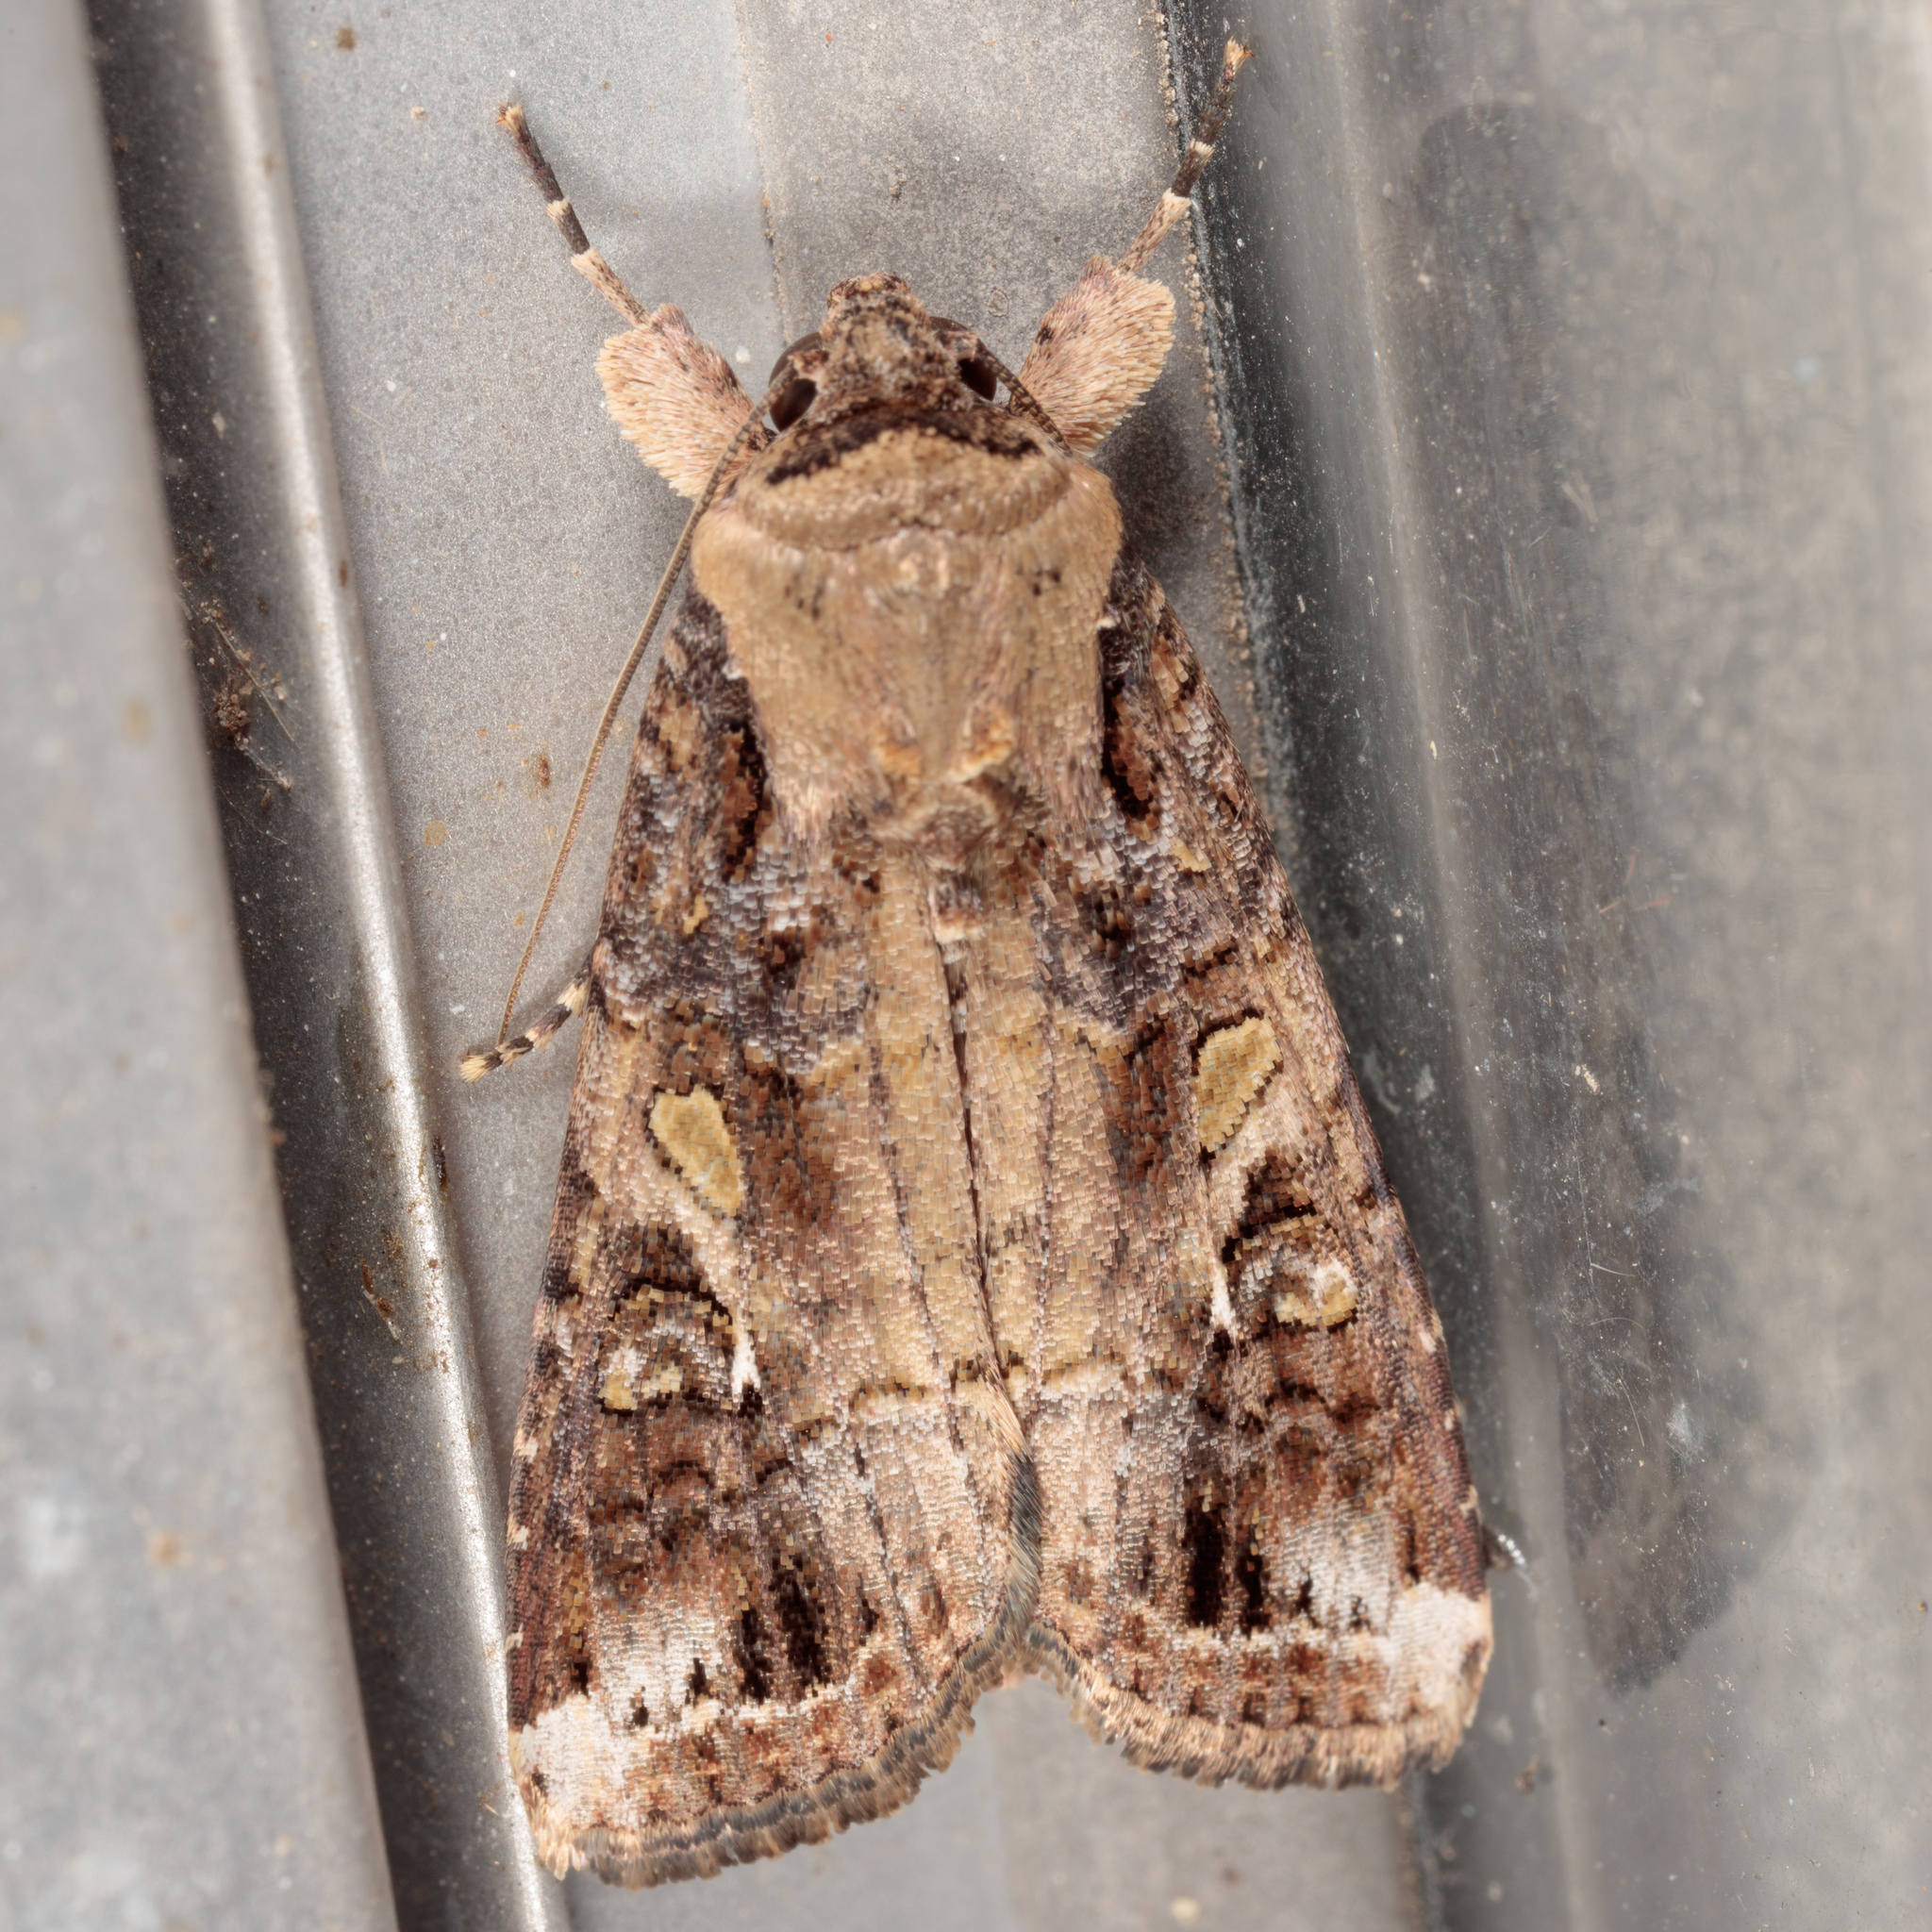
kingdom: Animalia
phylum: Arthropoda
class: Insecta
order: Lepidoptera
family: Noctuidae
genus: Spodoptera
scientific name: Spodoptera frugiperda
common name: Fall armyworm
